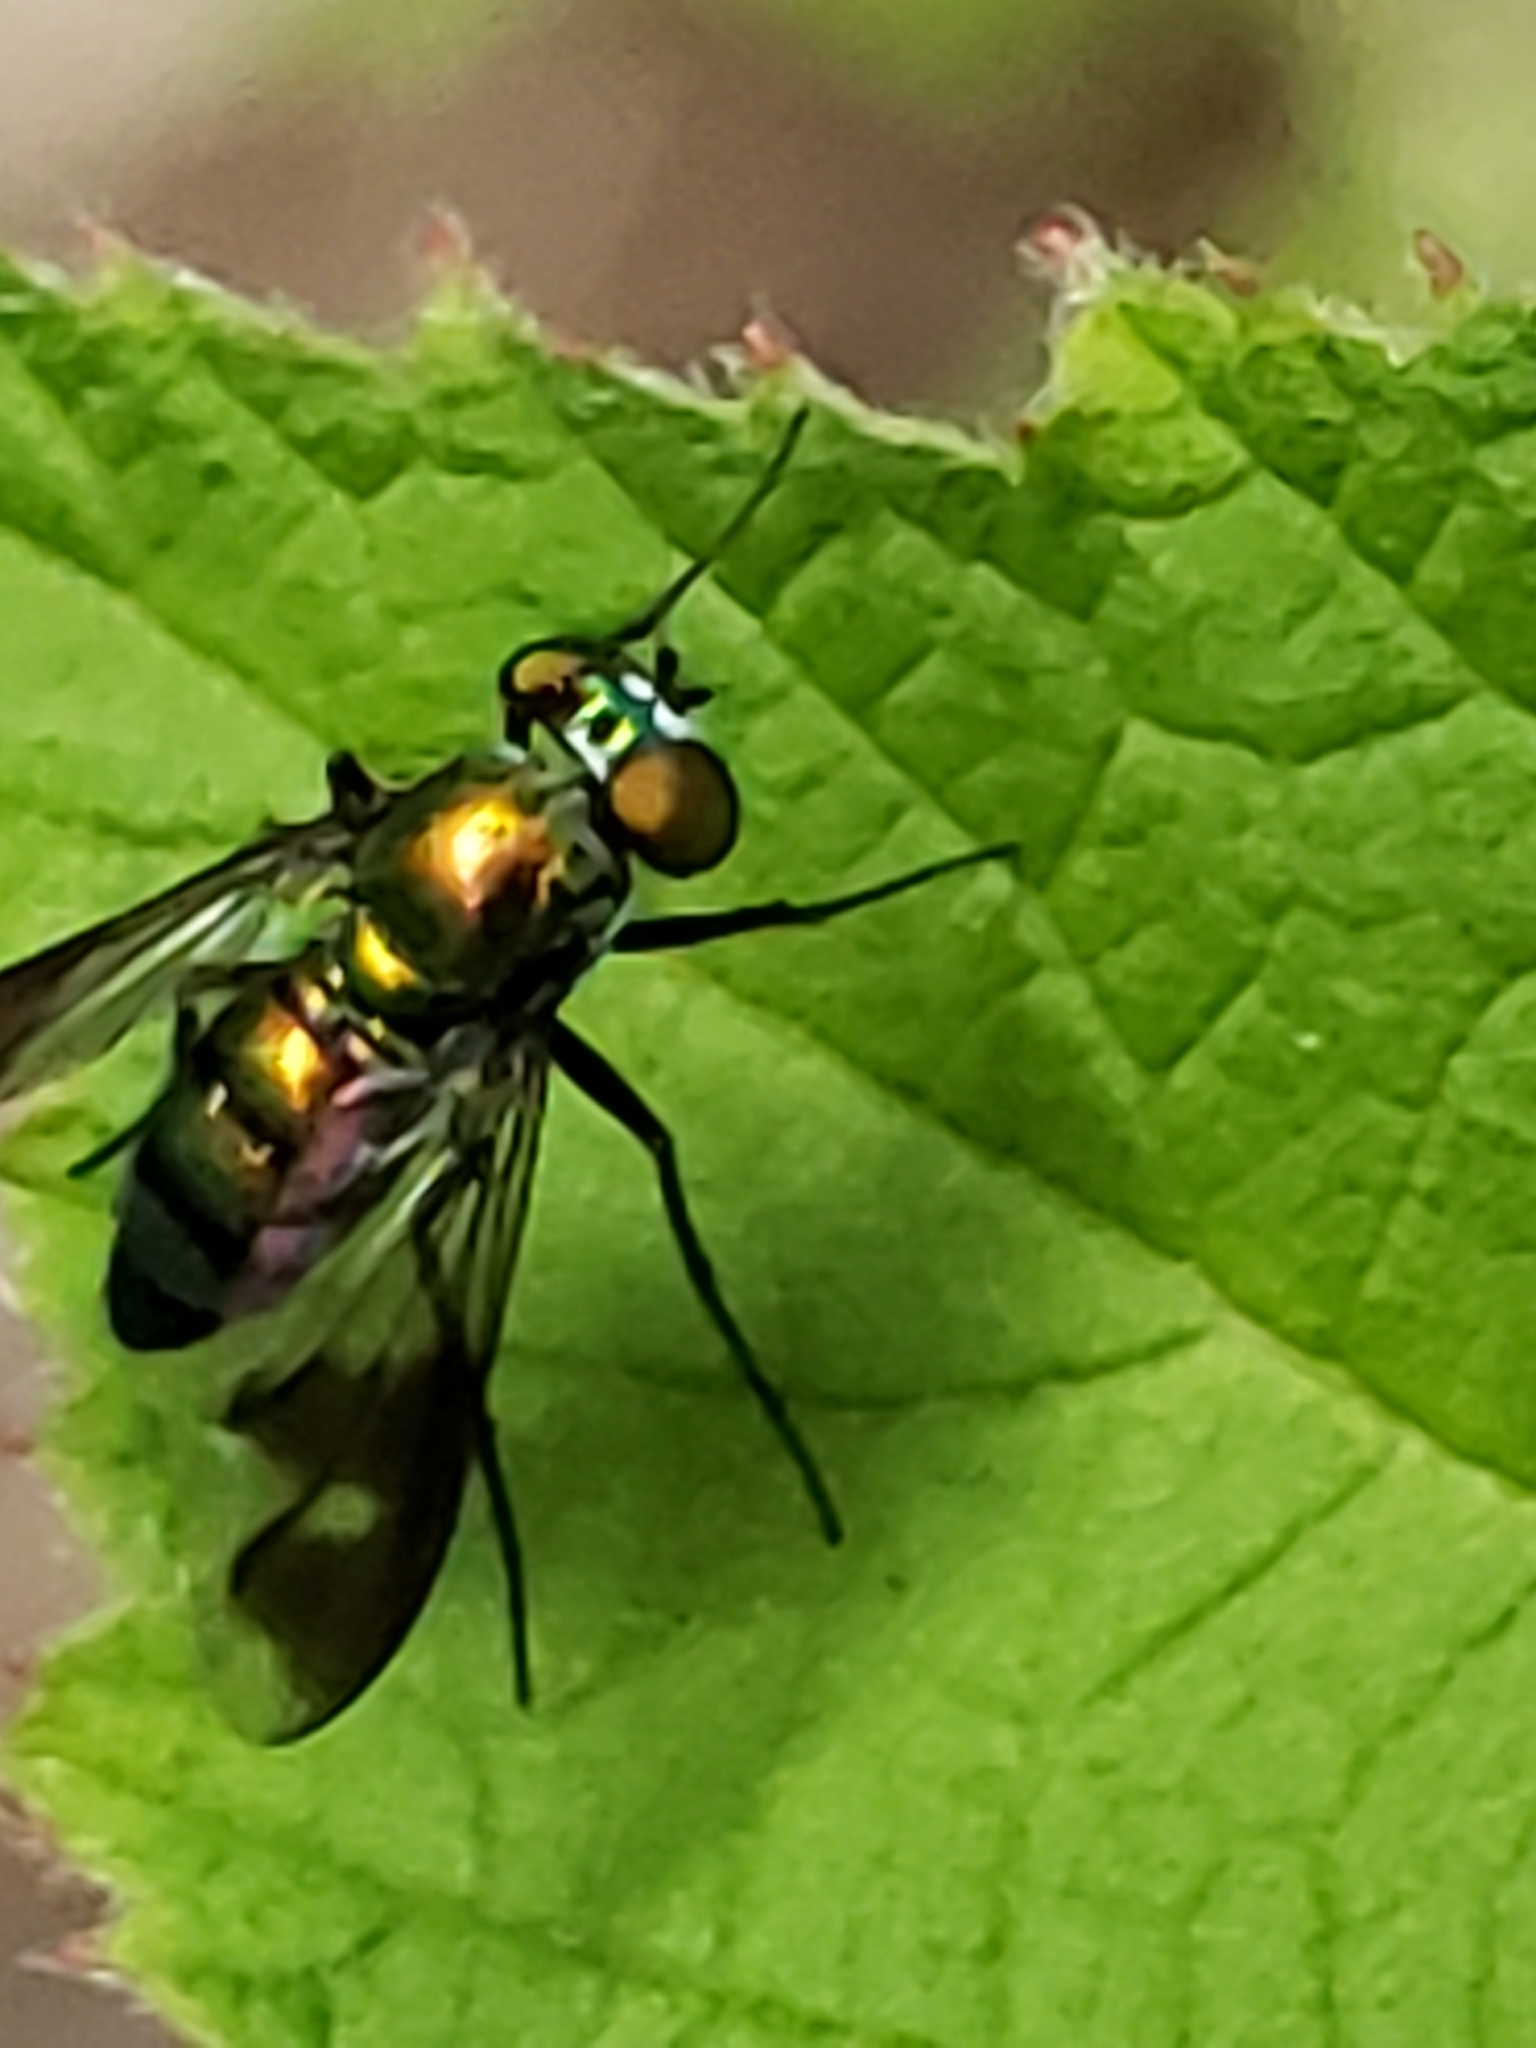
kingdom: Animalia
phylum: Arthropoda
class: Insecta
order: Diptera
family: Dolichopodidae
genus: Condylostylus
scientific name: Condylostylus patibulatus
